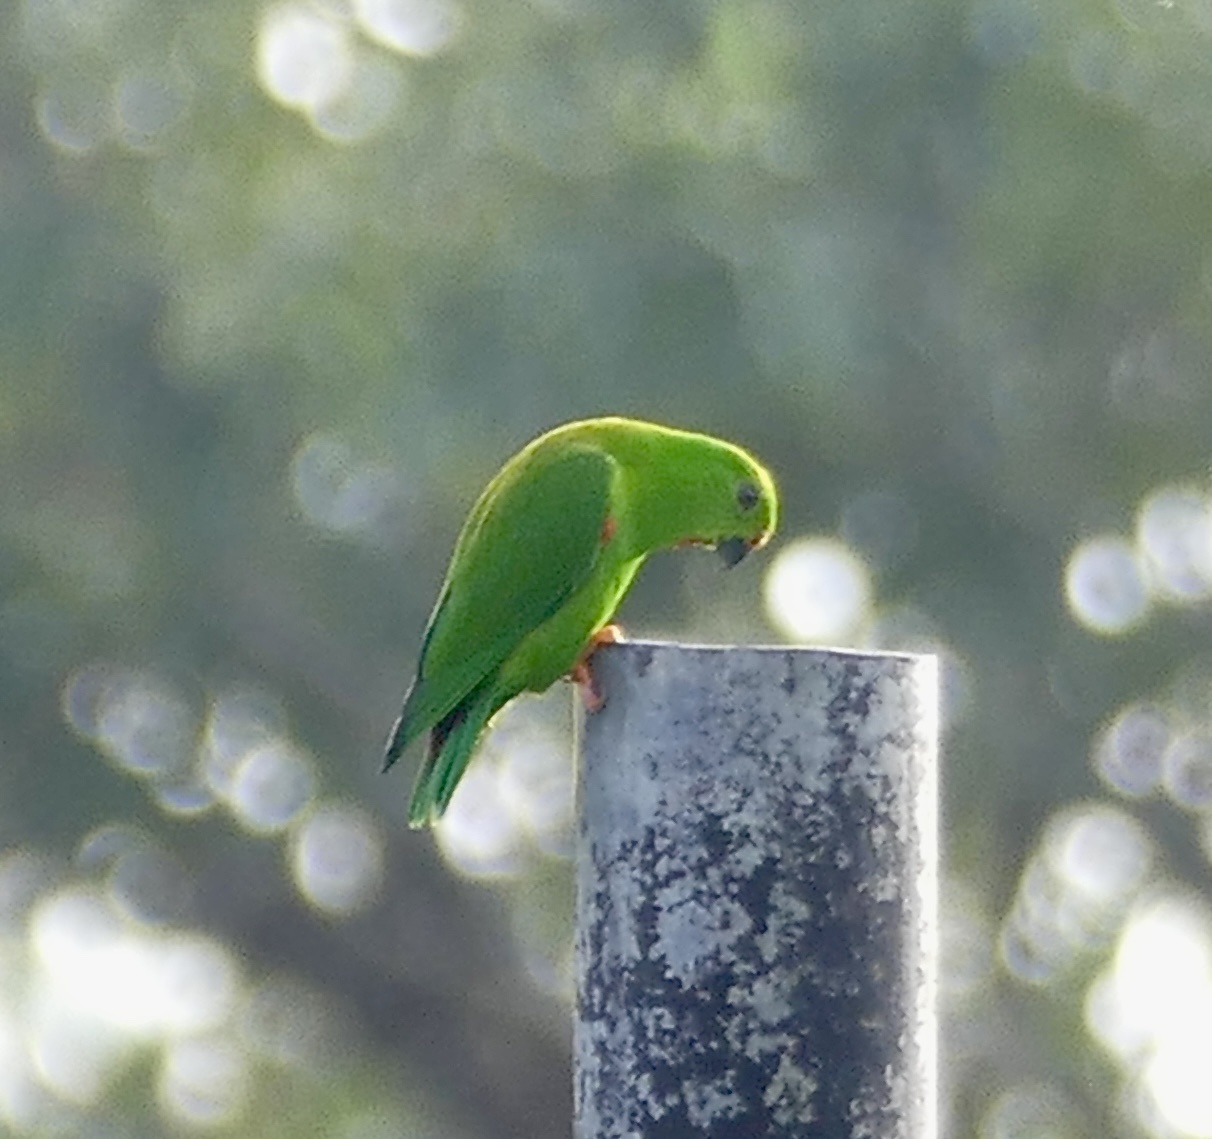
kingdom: Animalia
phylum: Chordata
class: Aves
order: Psittaciformes
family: Psittacidae
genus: Loriculus
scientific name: Loriculus stigmatus
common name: Great hanging parrot
